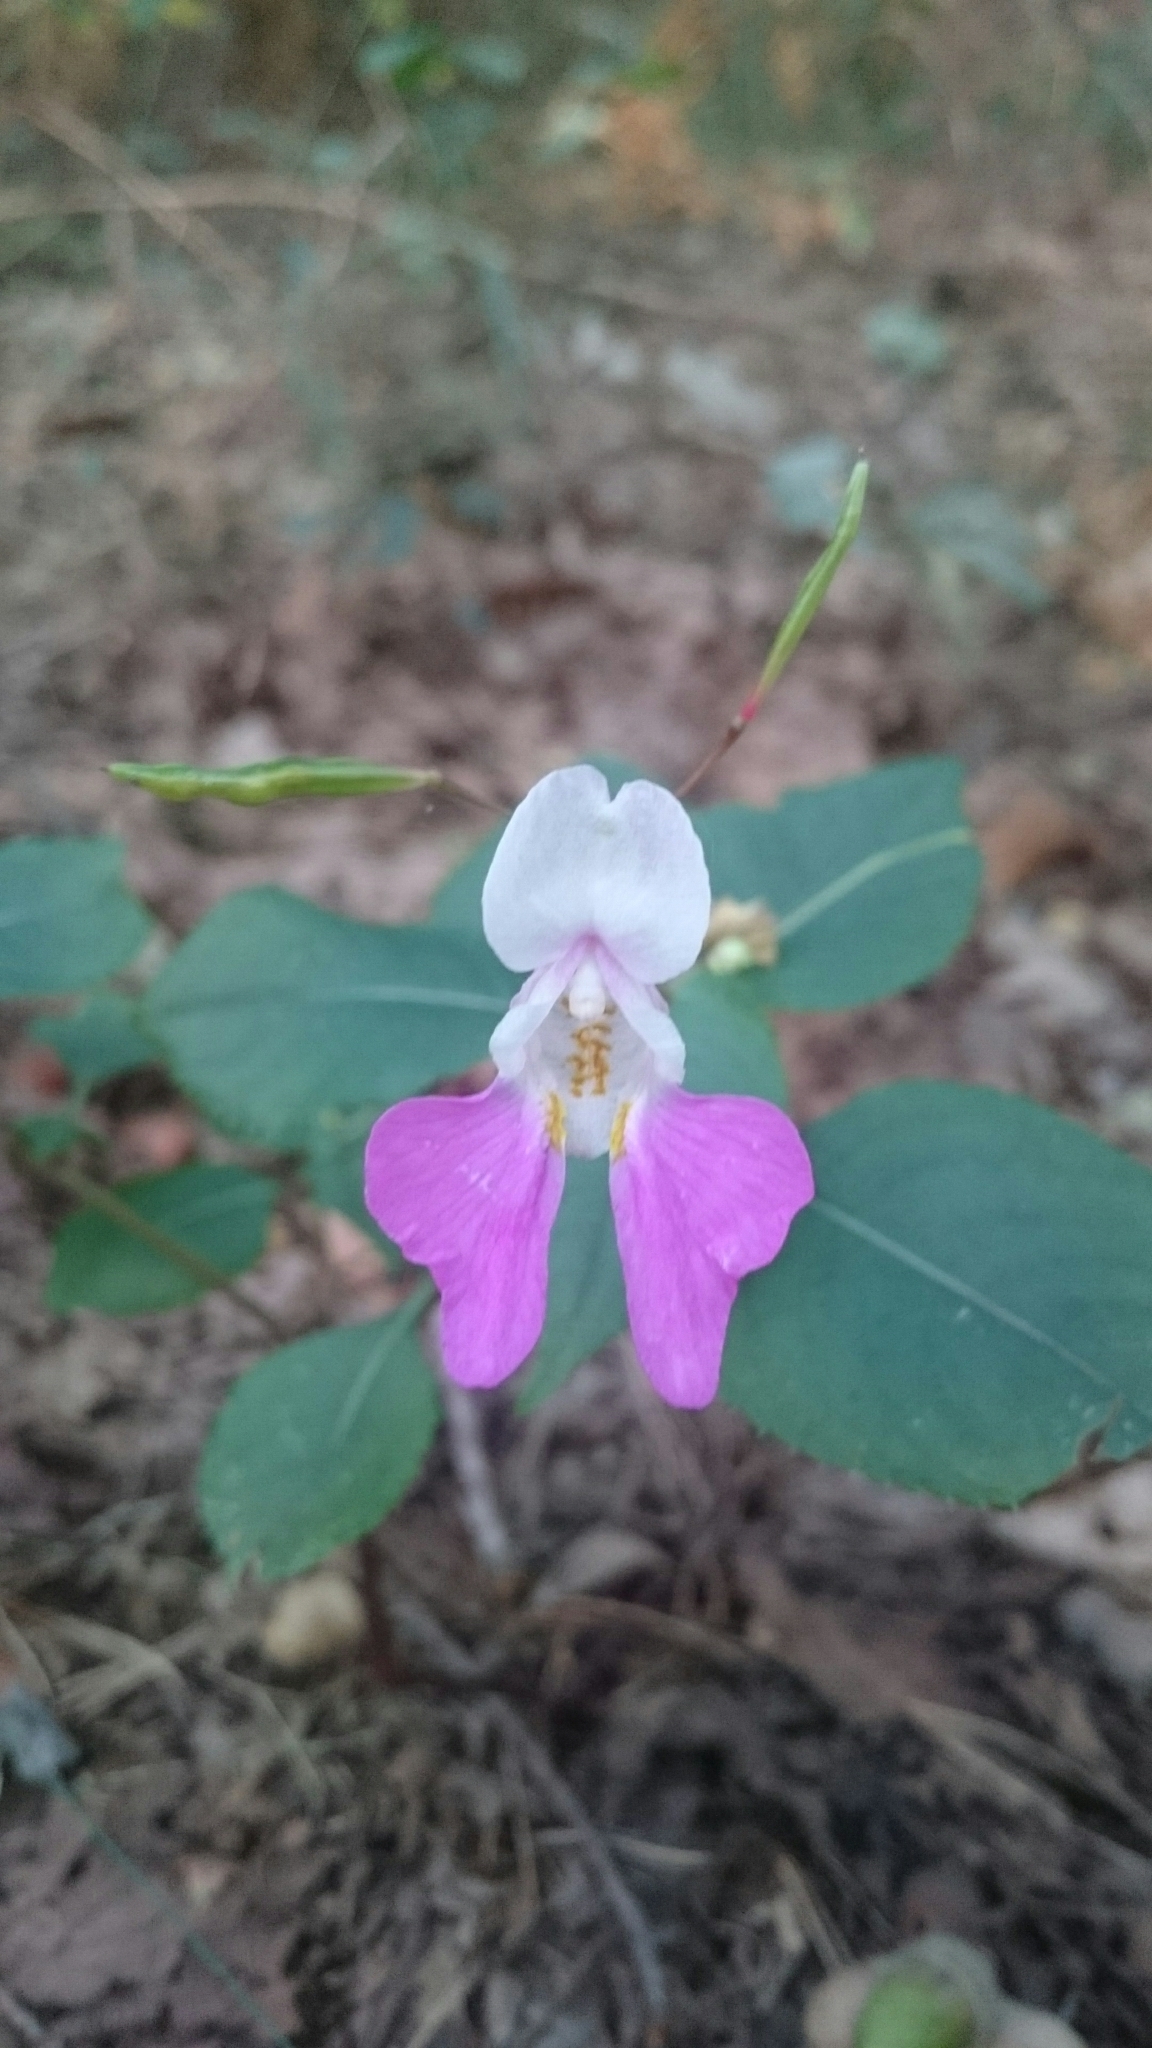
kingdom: Plantae
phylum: Tracheophyta
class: Magnoliopsida
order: Ericales
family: Balsaminaceae
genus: Impatiens
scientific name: Impatiens balfourii
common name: Balfour's touch-me-not
